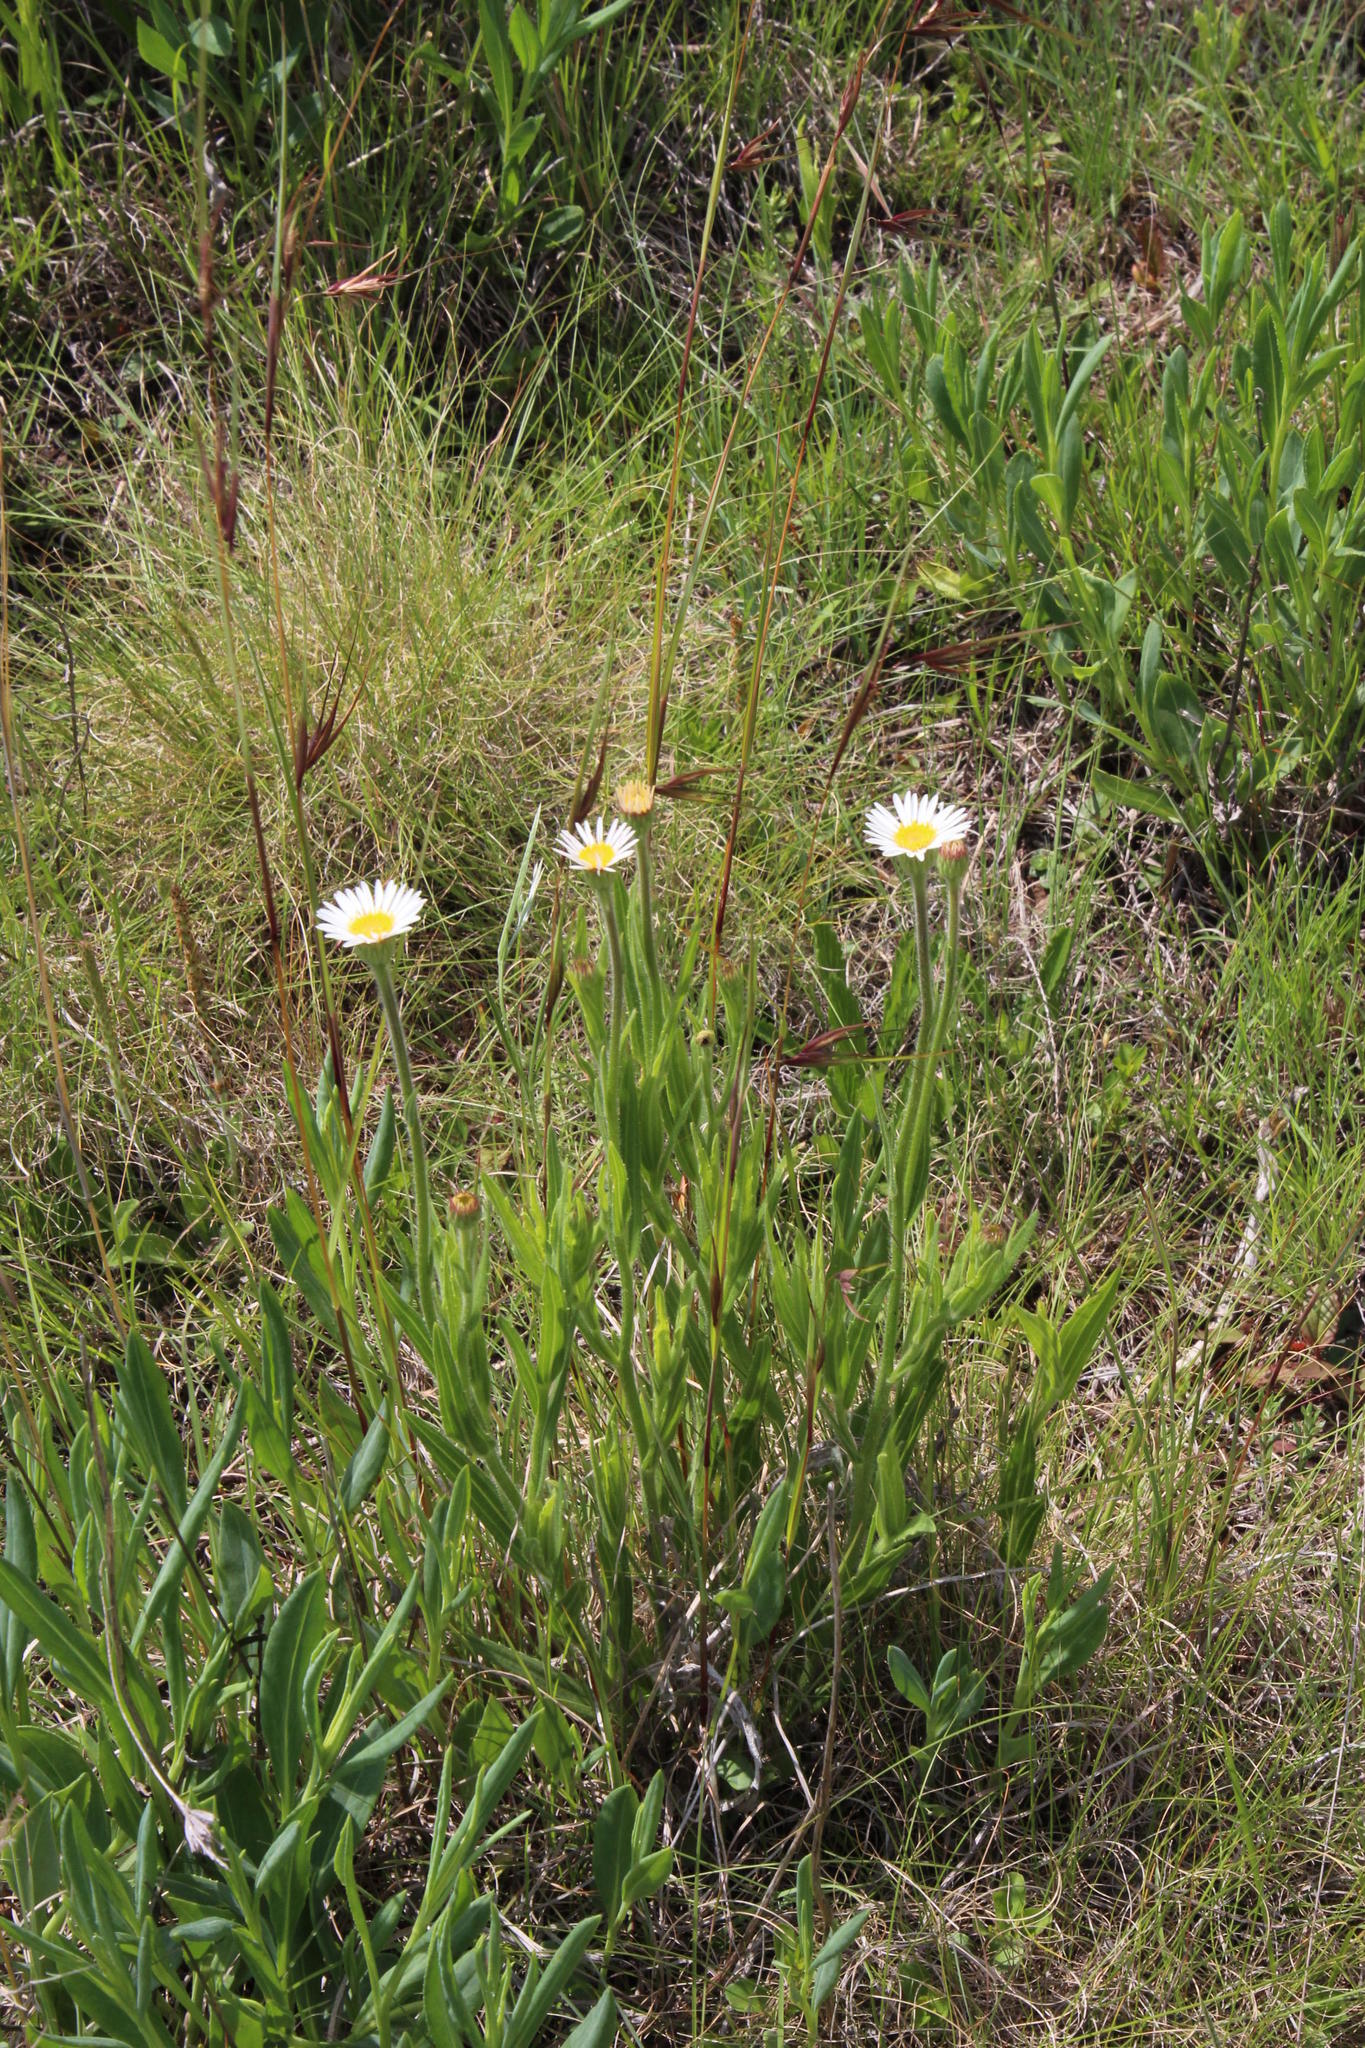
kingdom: Plantae
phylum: Tracheophyta
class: Magnoliopsida
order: Asterales
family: Asteraceae
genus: Afroaster
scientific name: Afroaster hispidus
